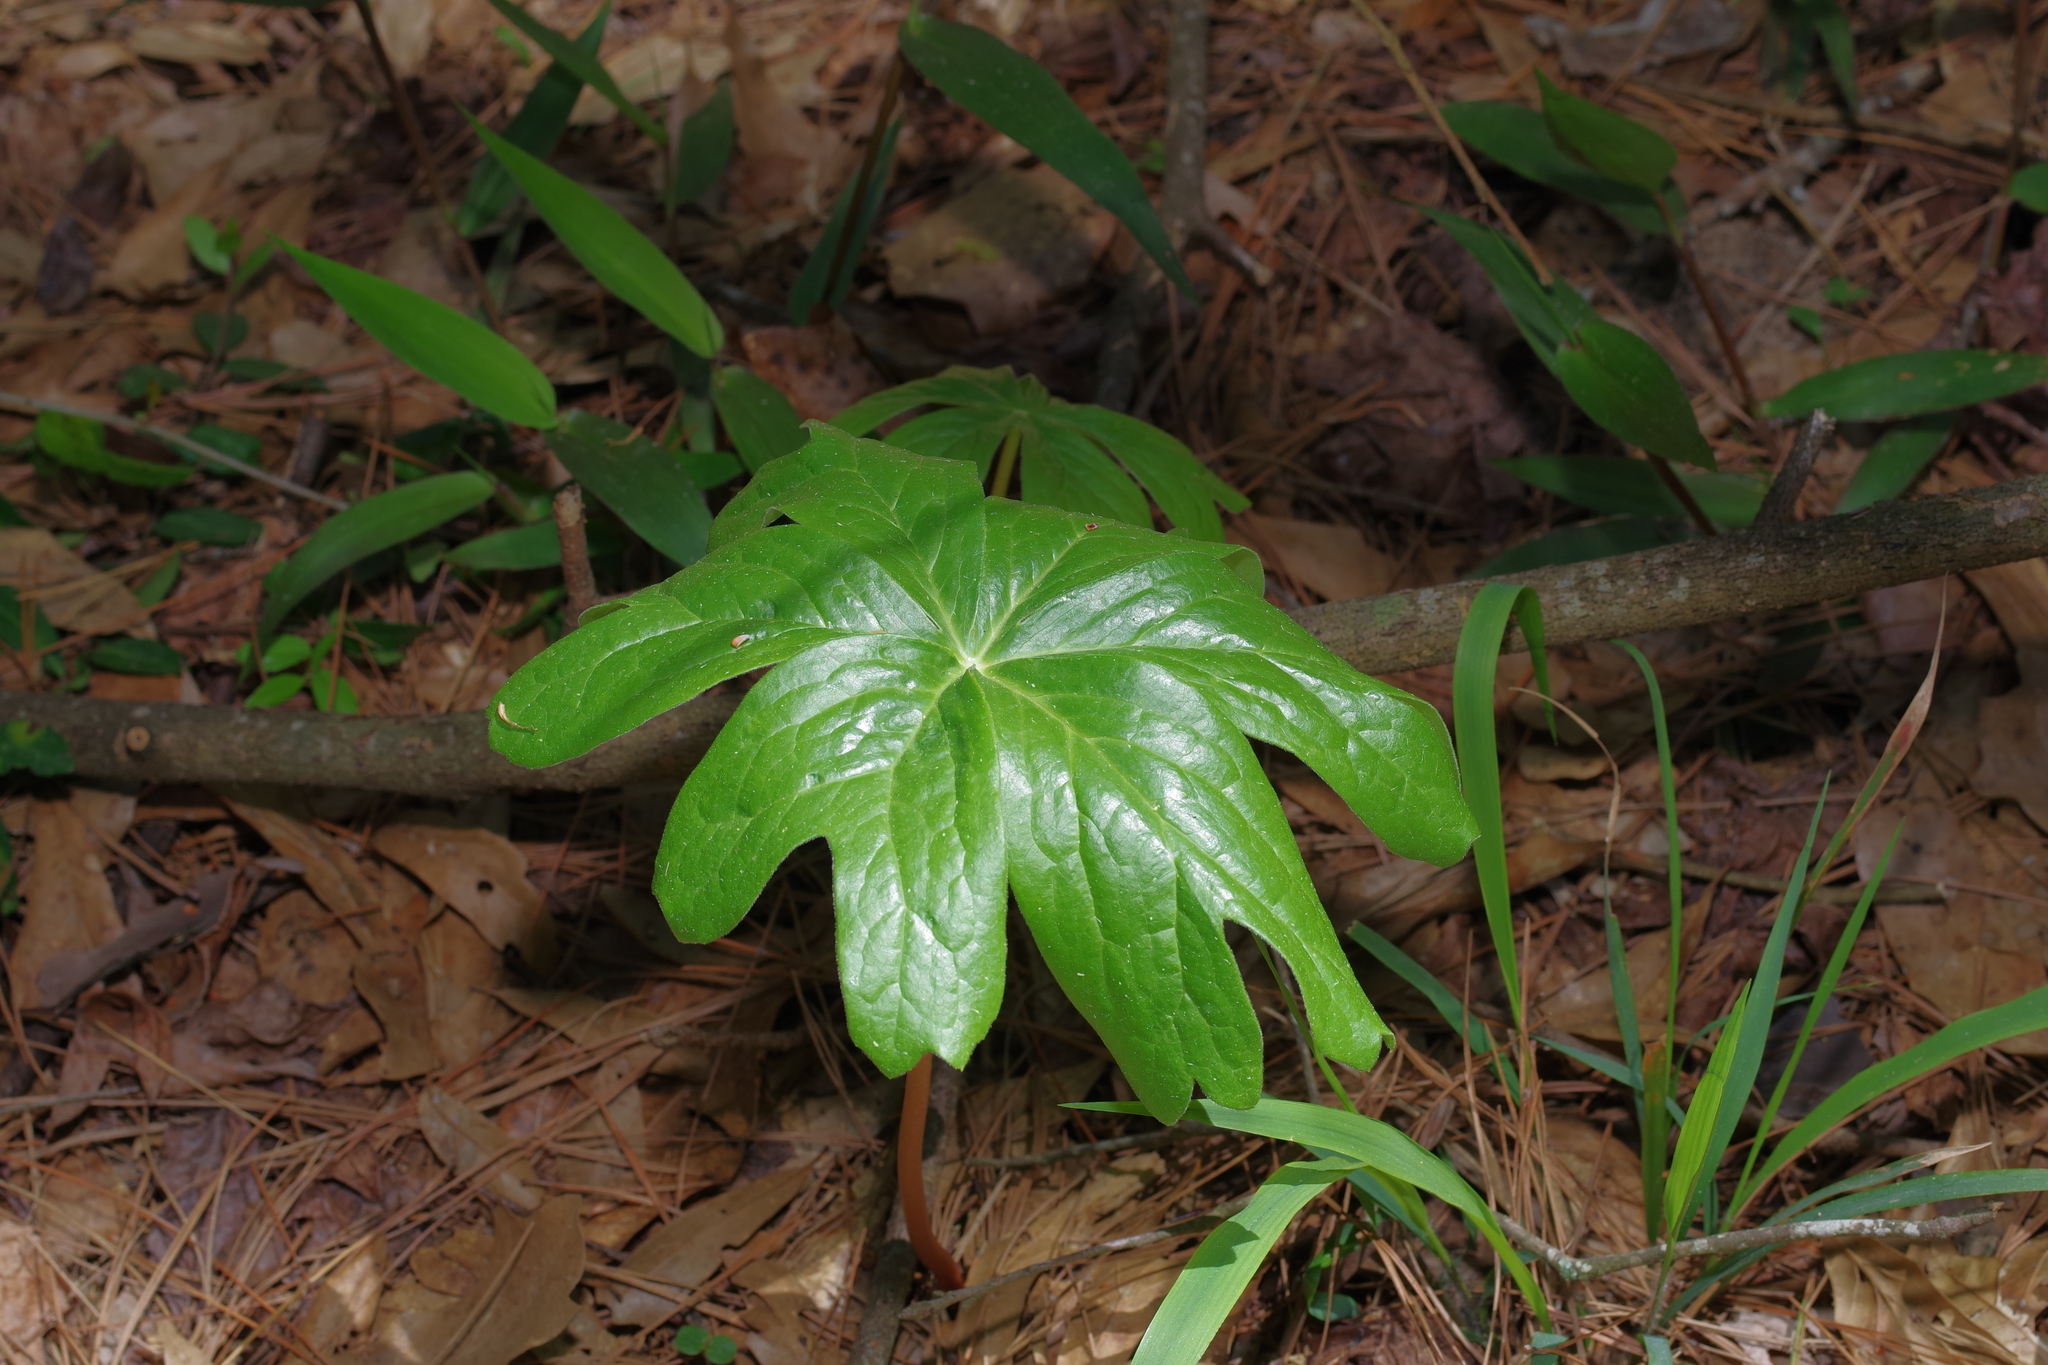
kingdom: Plantae
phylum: Tracheophyta
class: Magnoliopsida
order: Ranunculales
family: Berberidaceae
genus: Podophyllum
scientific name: Podophyllum peltatum
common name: Wild mandrake
